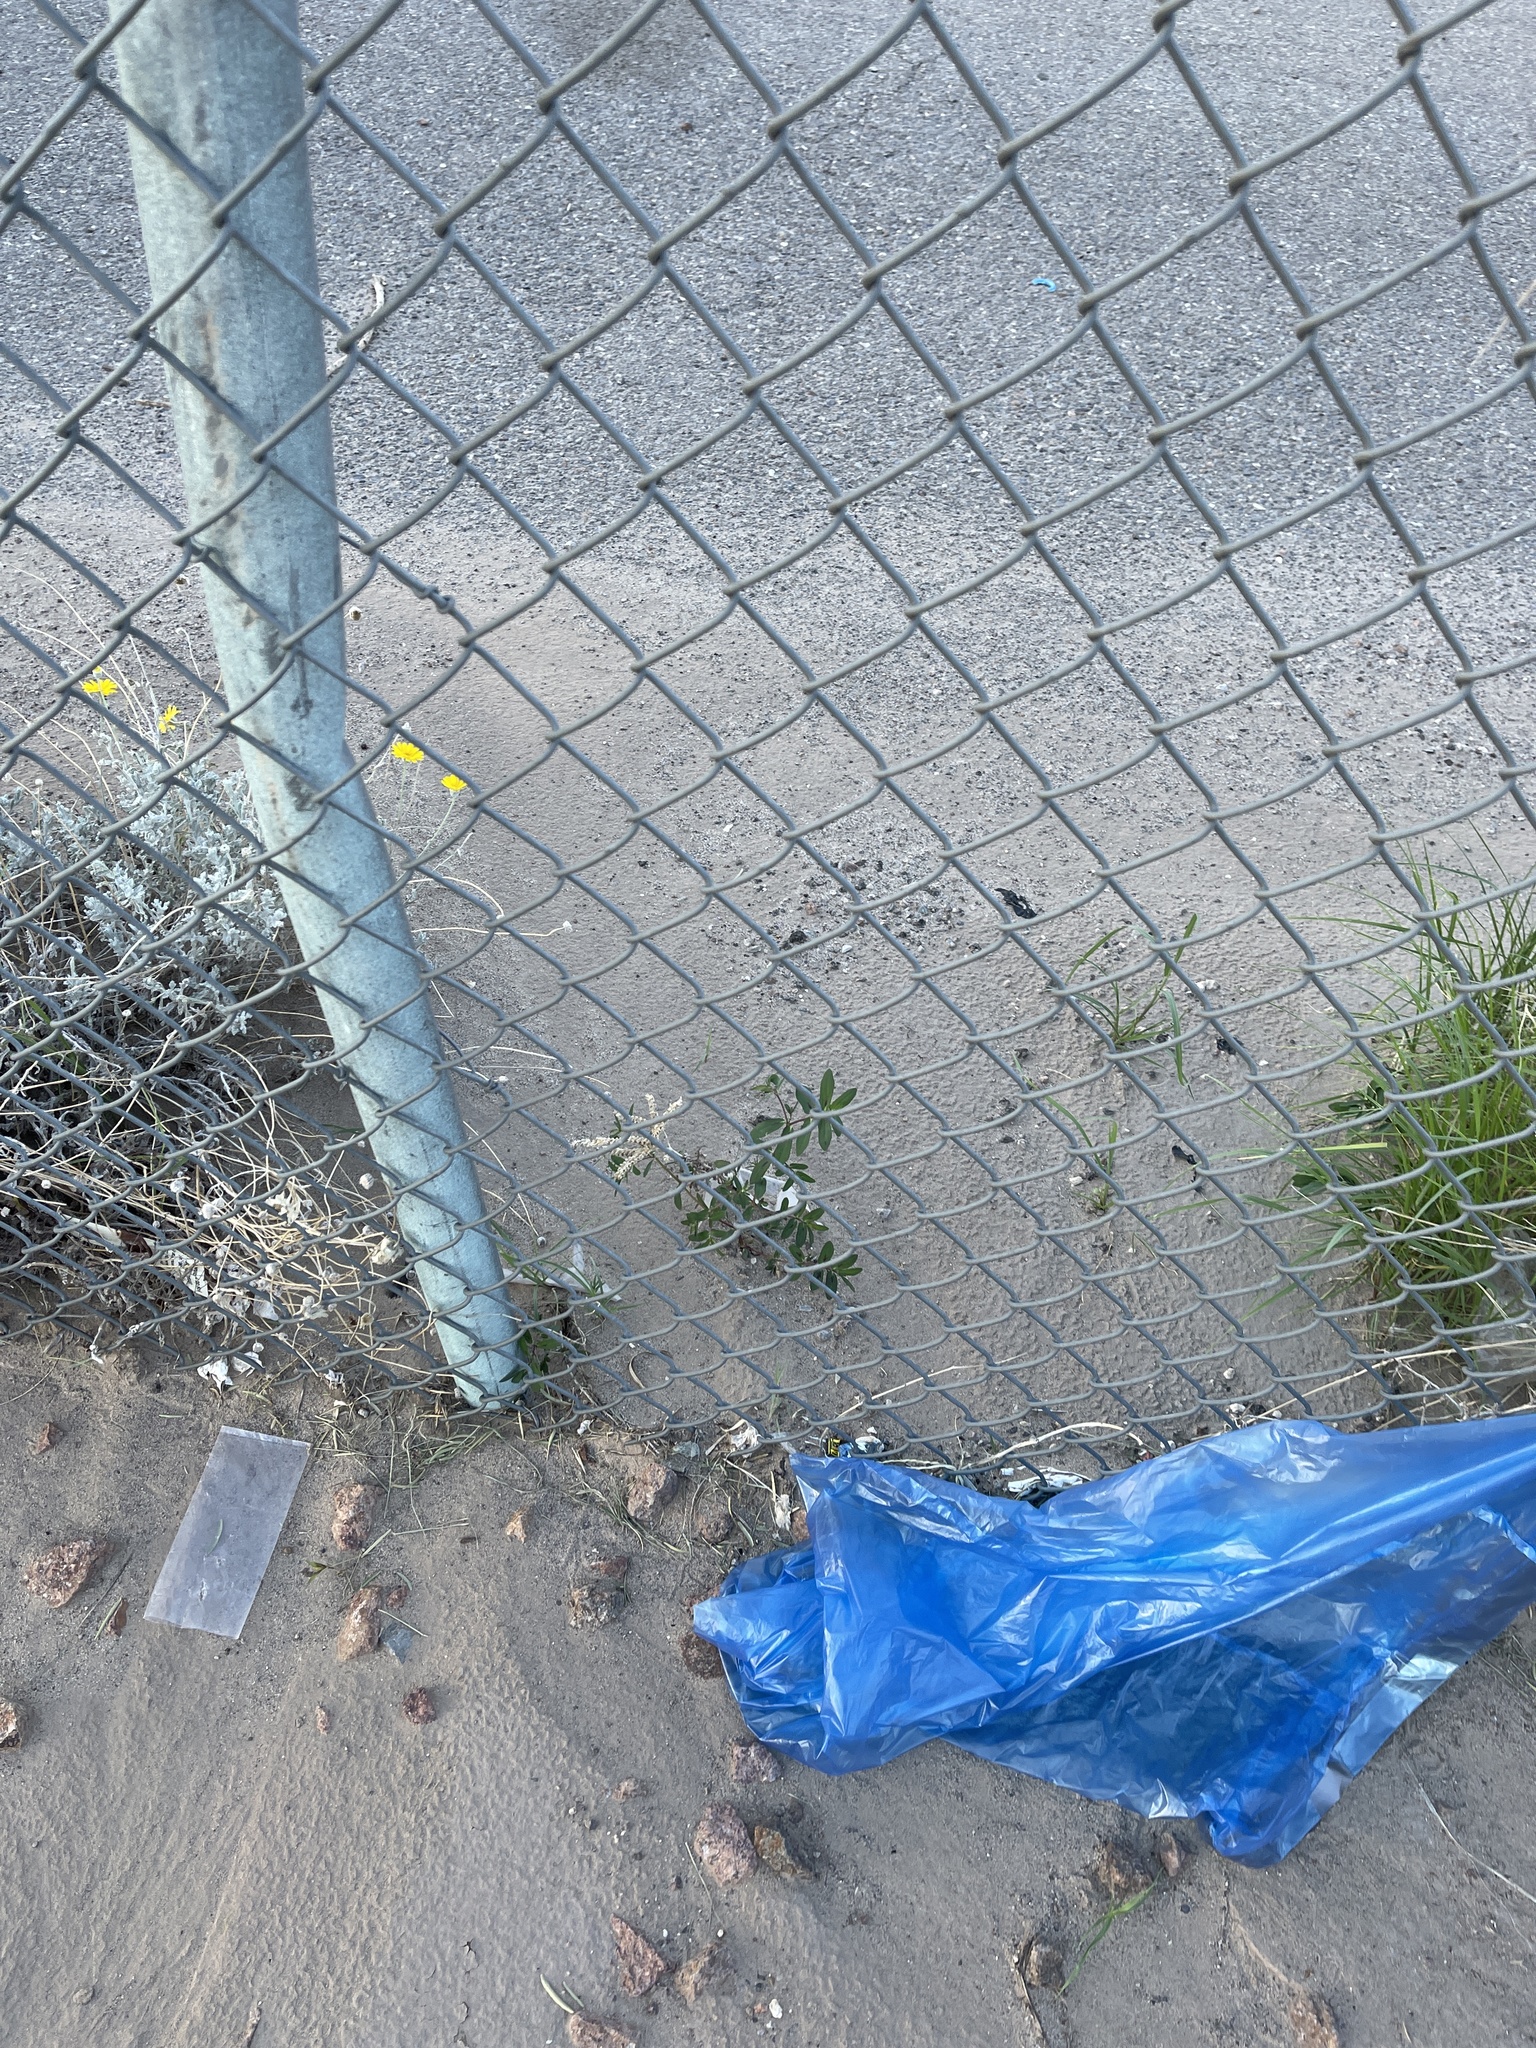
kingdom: Plantae
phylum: Tracheophyta
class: Magnoliopsida
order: Malpighiales
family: Euphorbiaceae
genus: Euphorbia
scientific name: Euphorbia hyssopifolia
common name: Hyssopleaf sandmat
